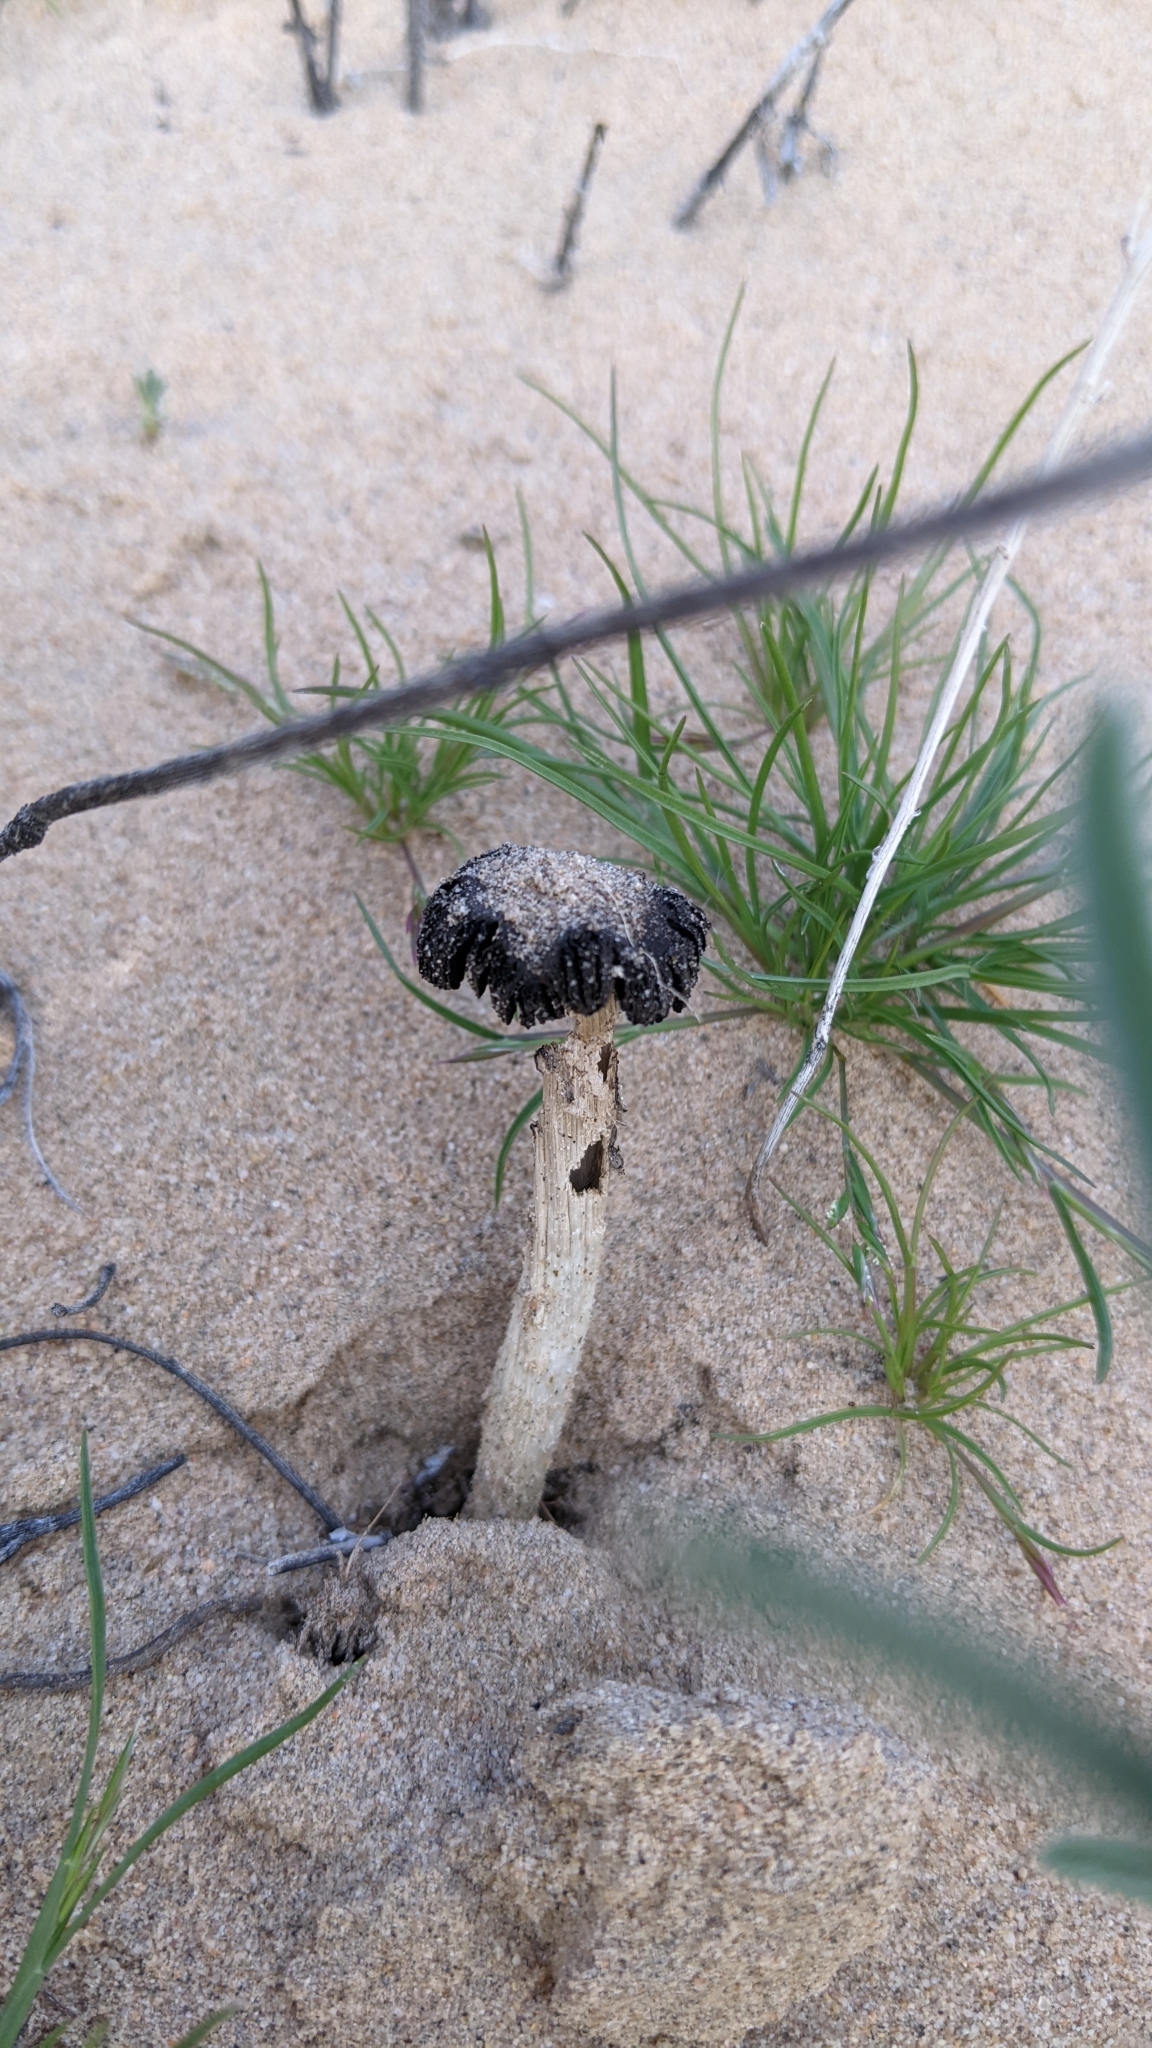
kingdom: Fungi
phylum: Basidiomycota
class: Agaricomycetes
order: Agaricales
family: Agaricaceae
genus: Montagnea
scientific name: Montagnea arenaria
